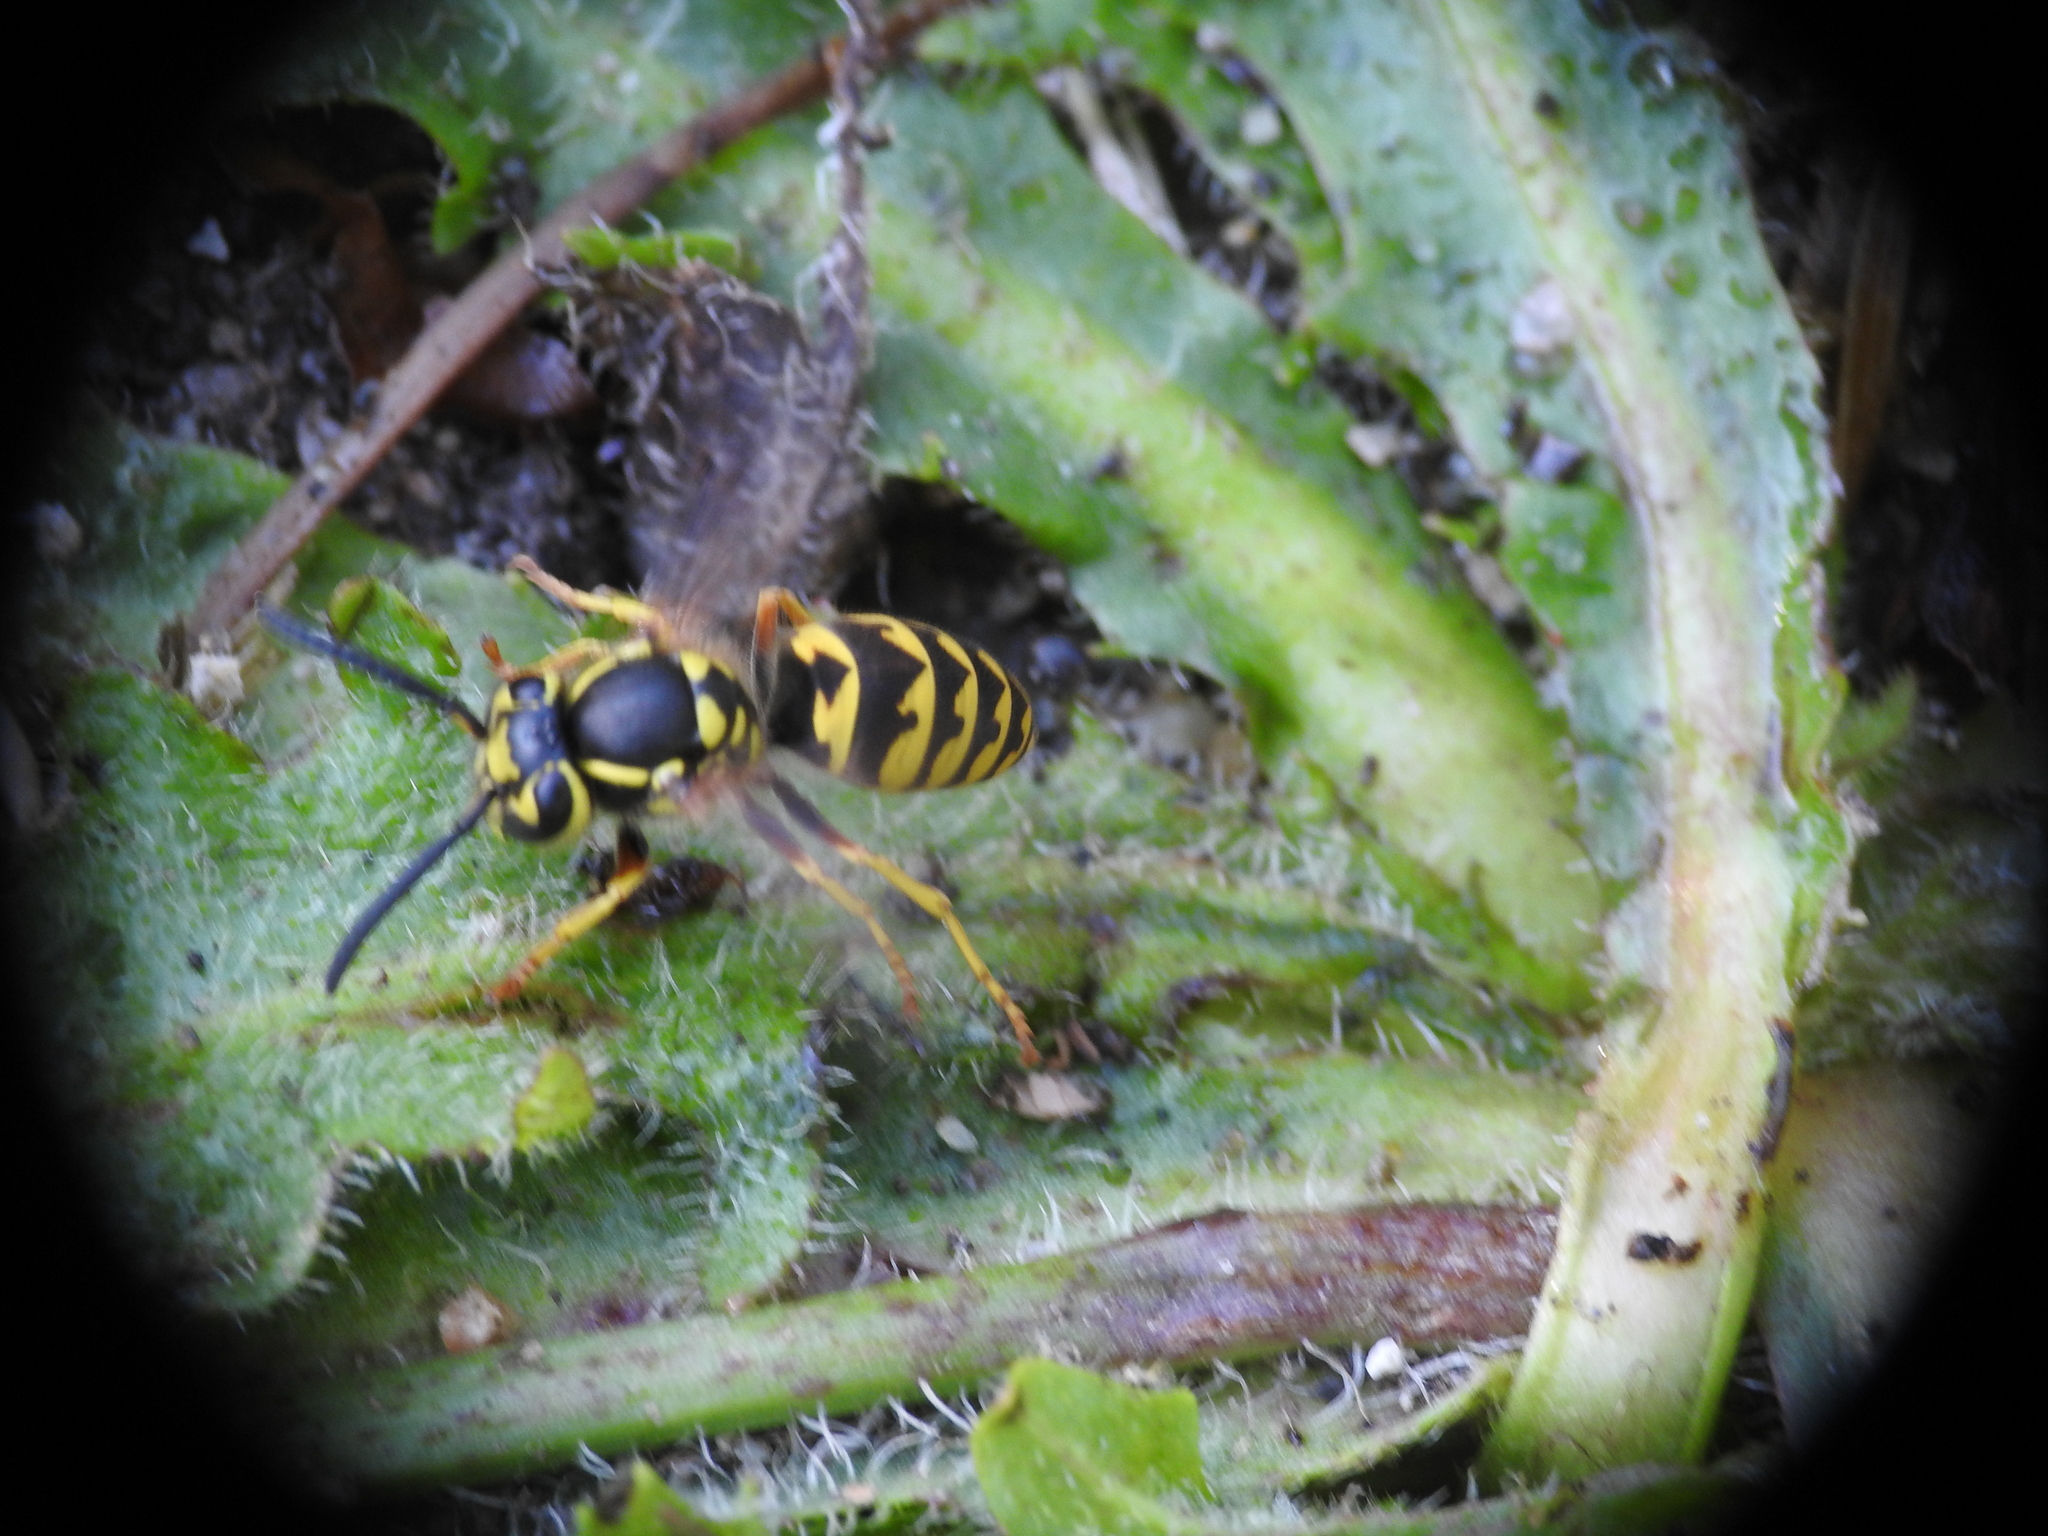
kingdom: Animalia
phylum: Arthropoda
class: Insecta
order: Hymenoptera
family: Vespidae
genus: Vespula
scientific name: Vespula pensylvanica
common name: Western yellowjacket
